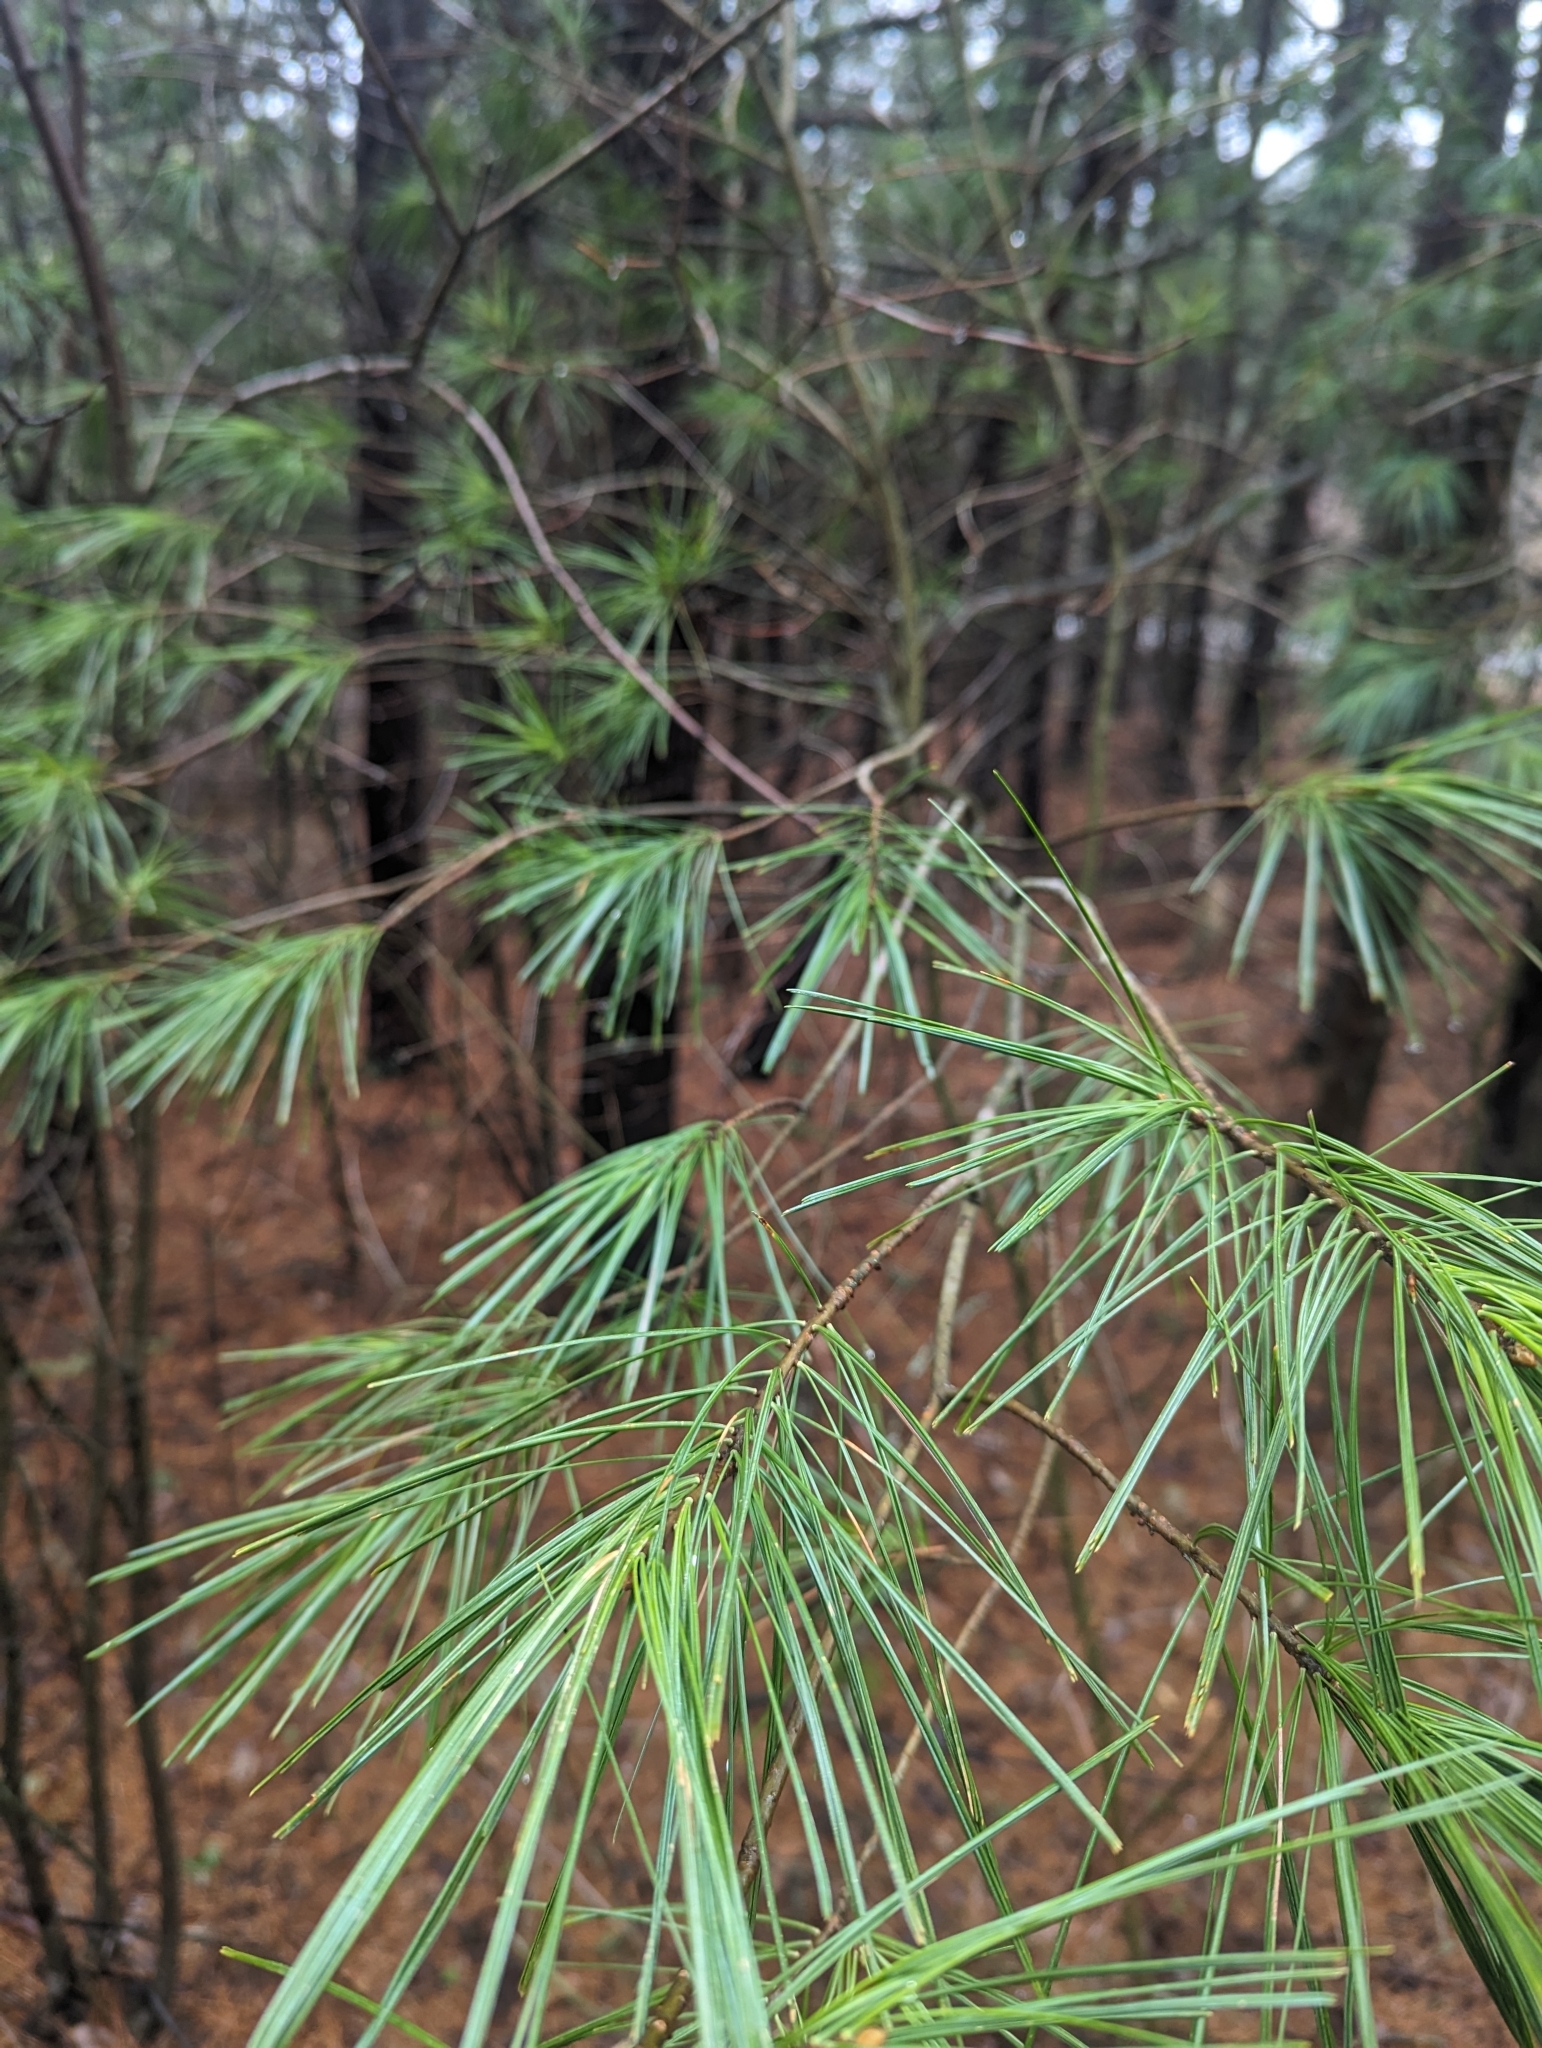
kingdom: Plantae
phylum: Tracheophyta
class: Pinopsida
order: Pinales
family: Pinaceae
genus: Pinus
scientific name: Pinus strobus
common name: Weymouth pine
